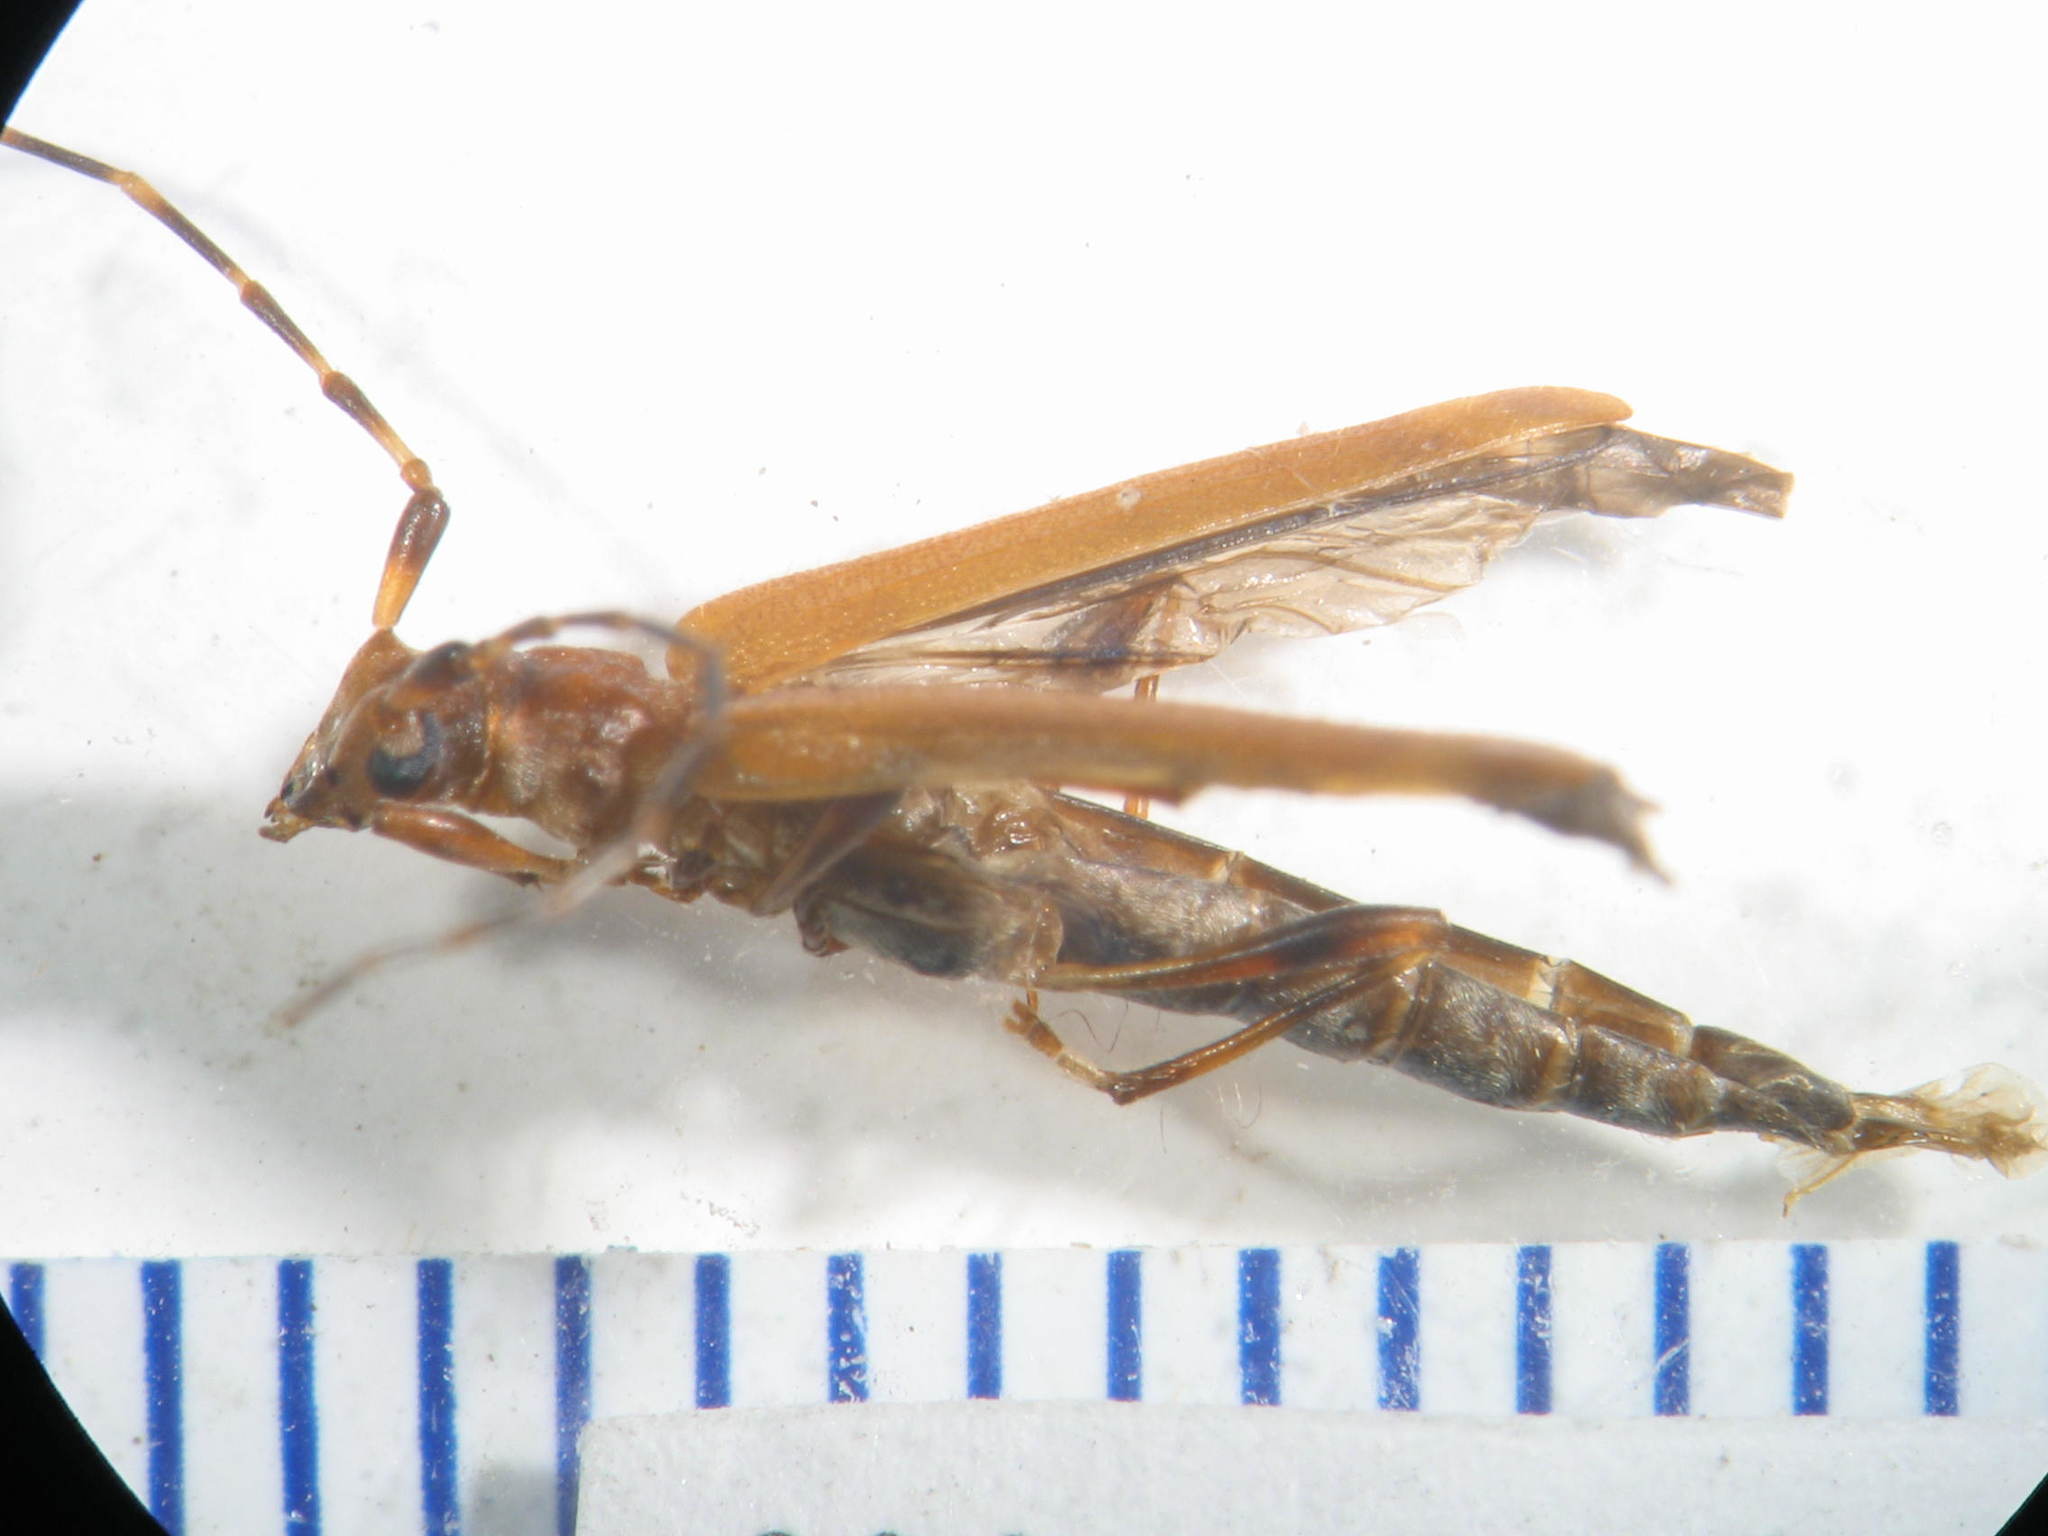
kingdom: Animalia
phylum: Arthropoda
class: Insecta
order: Coleoptera
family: Cerambycidae
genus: Nenenia
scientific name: Nenenia aurulenta
